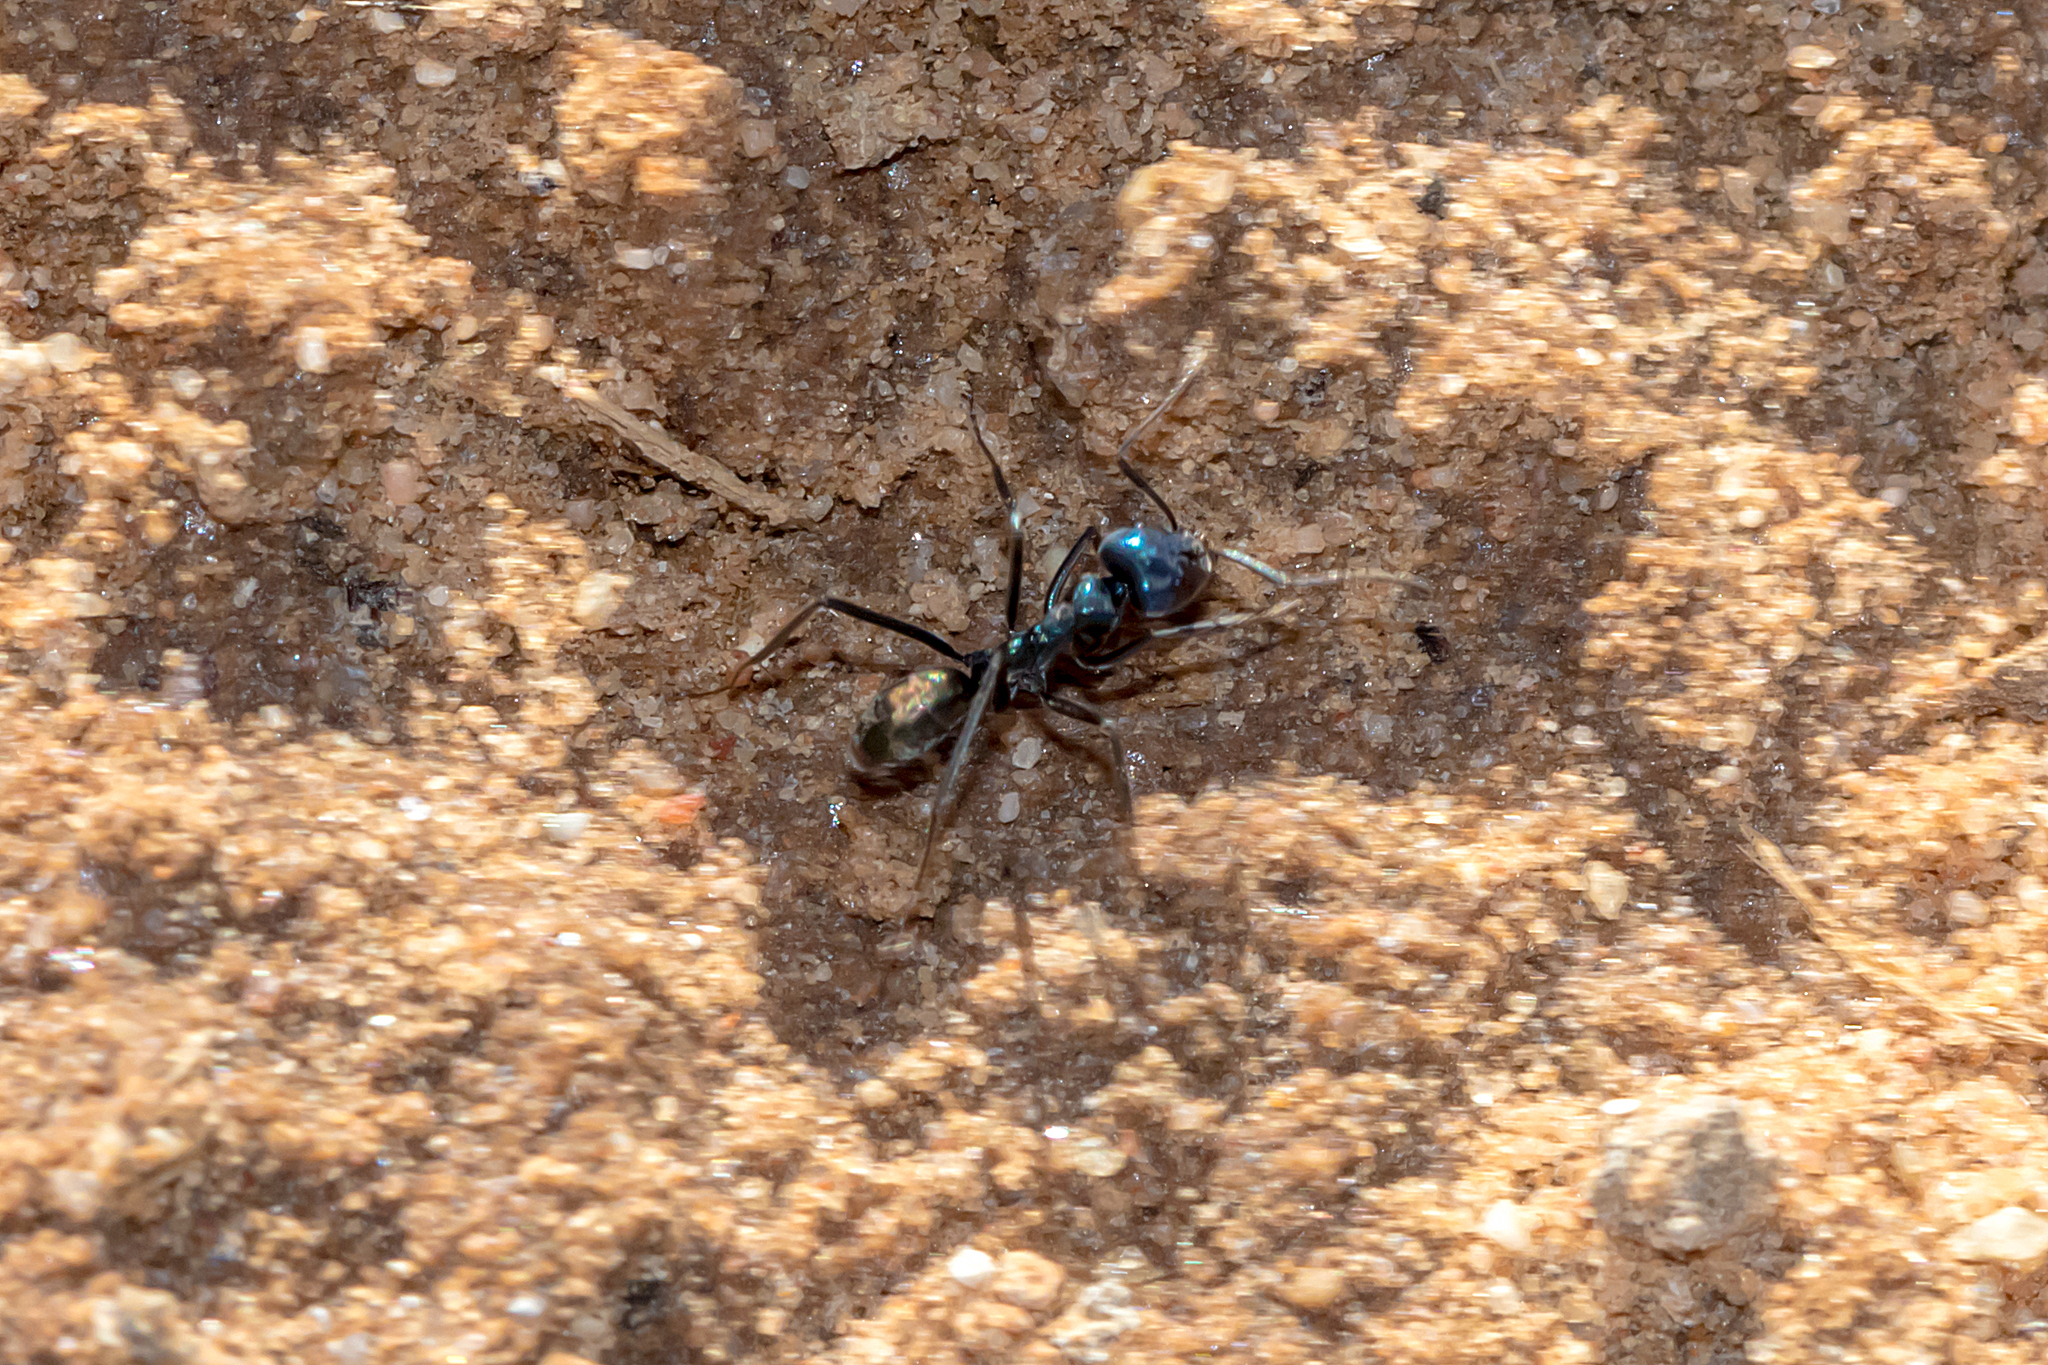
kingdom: Animalia
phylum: Arthropoda
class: Insecta
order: Hymenoptera
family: Formicidae
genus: Iridomyrmex
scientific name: Iridomyrmex lividus
